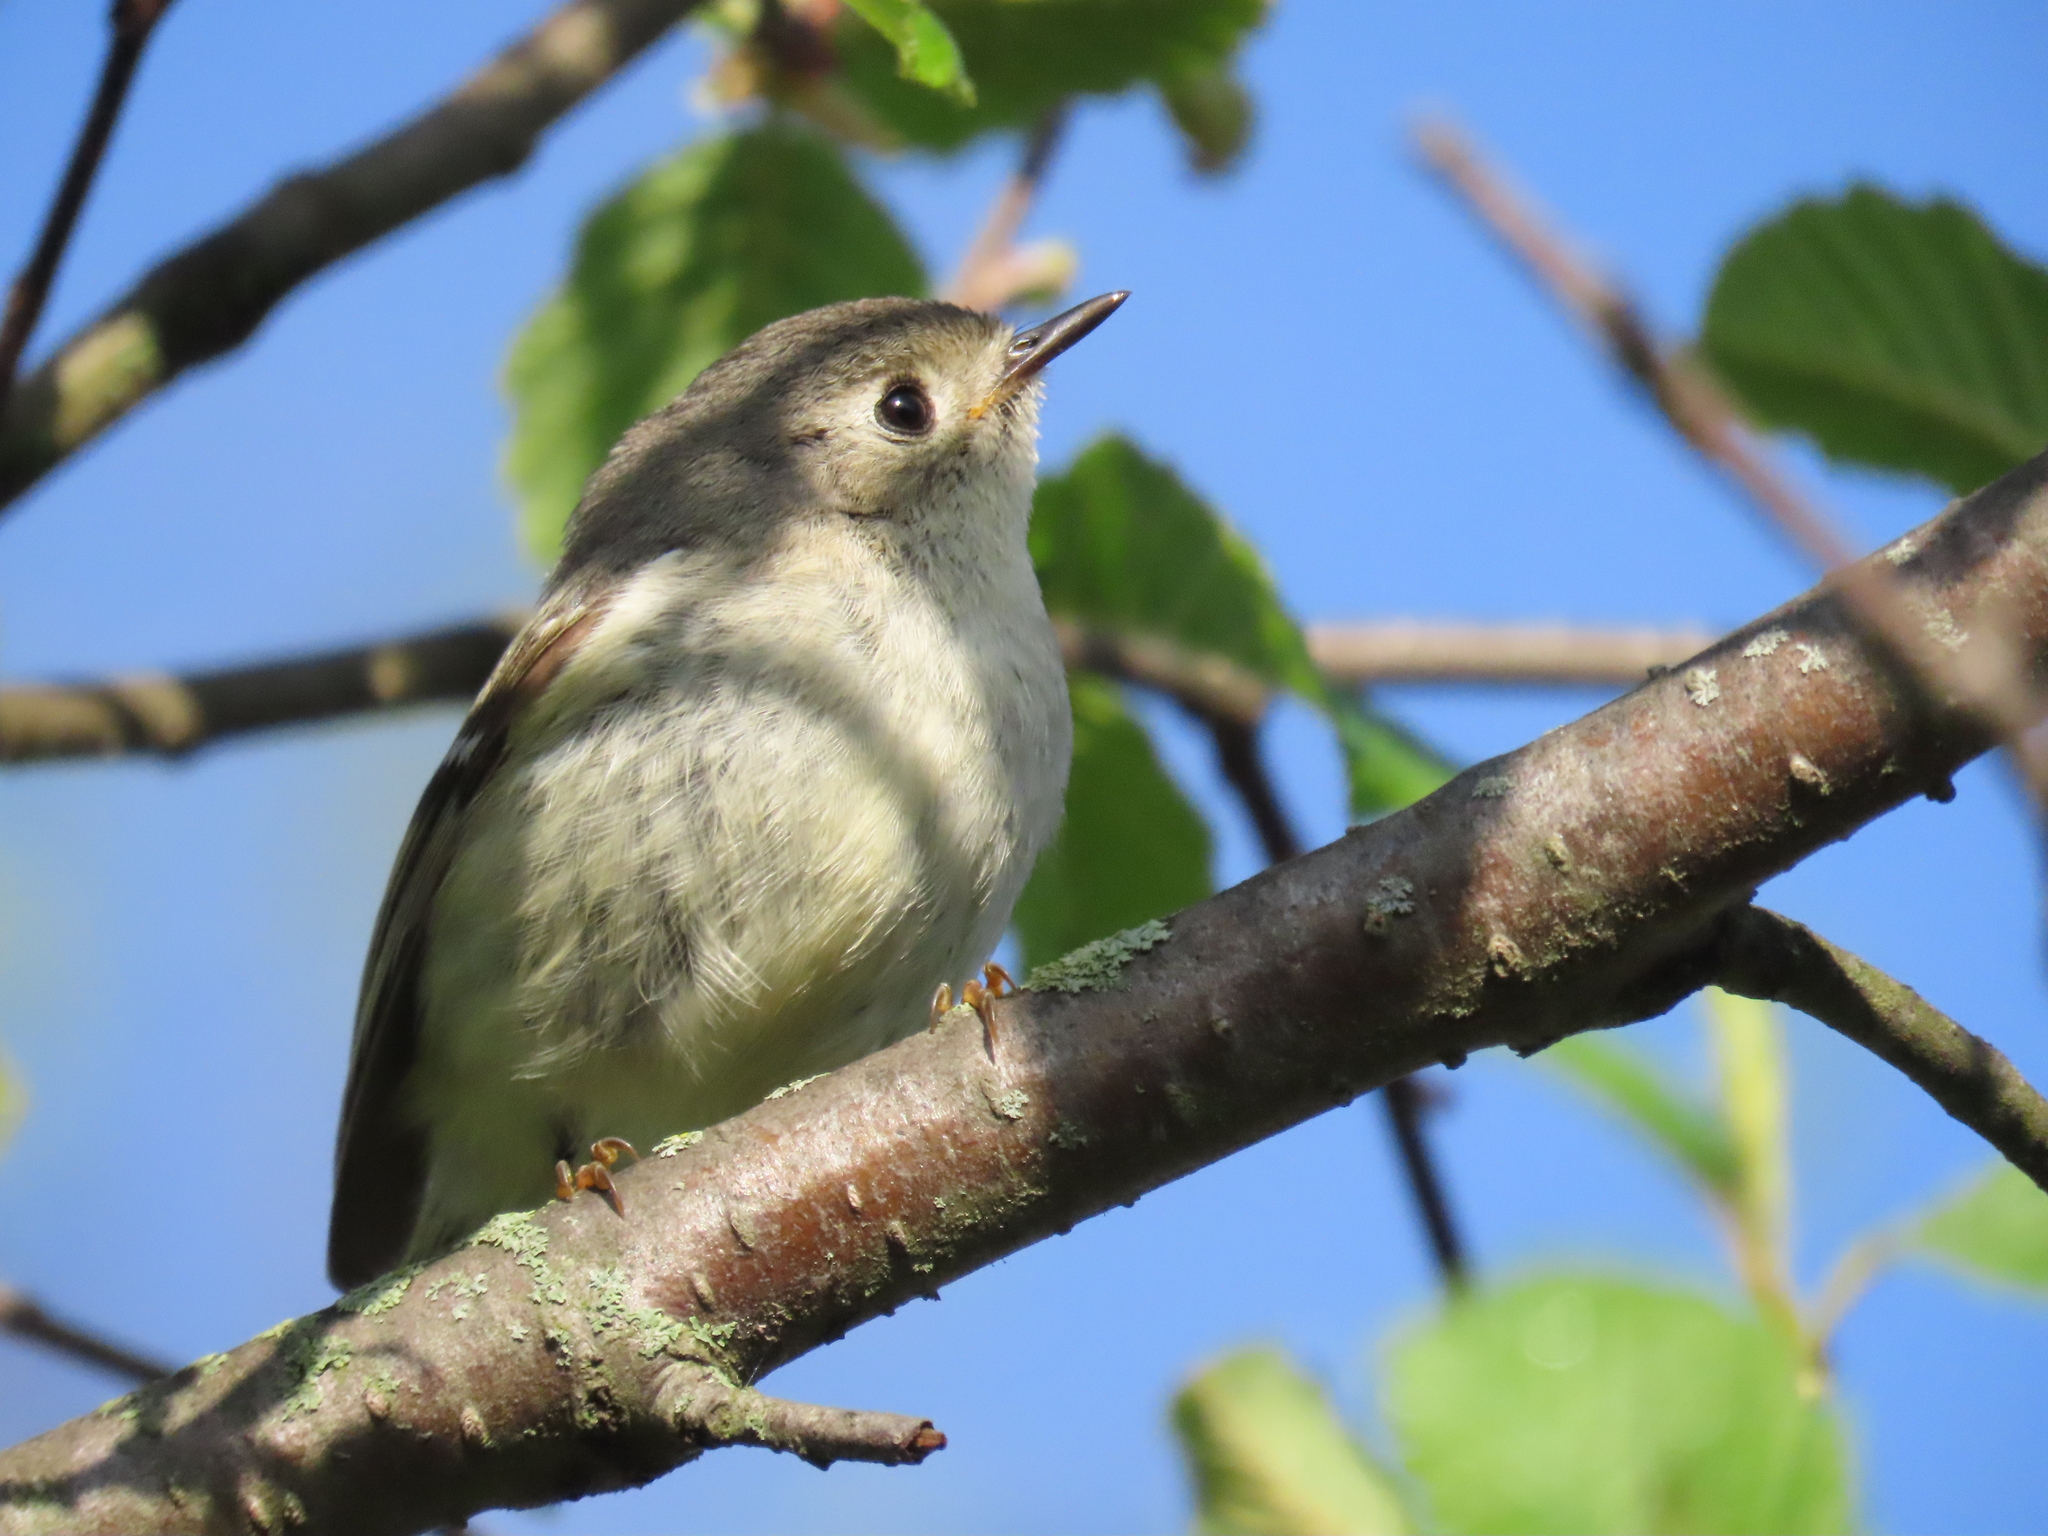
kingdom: Animalia
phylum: Chordata
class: Aves
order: Passeriformes
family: Regulidae
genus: Regulus
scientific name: Regulus calendula
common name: Ruby-crowned kinglet
